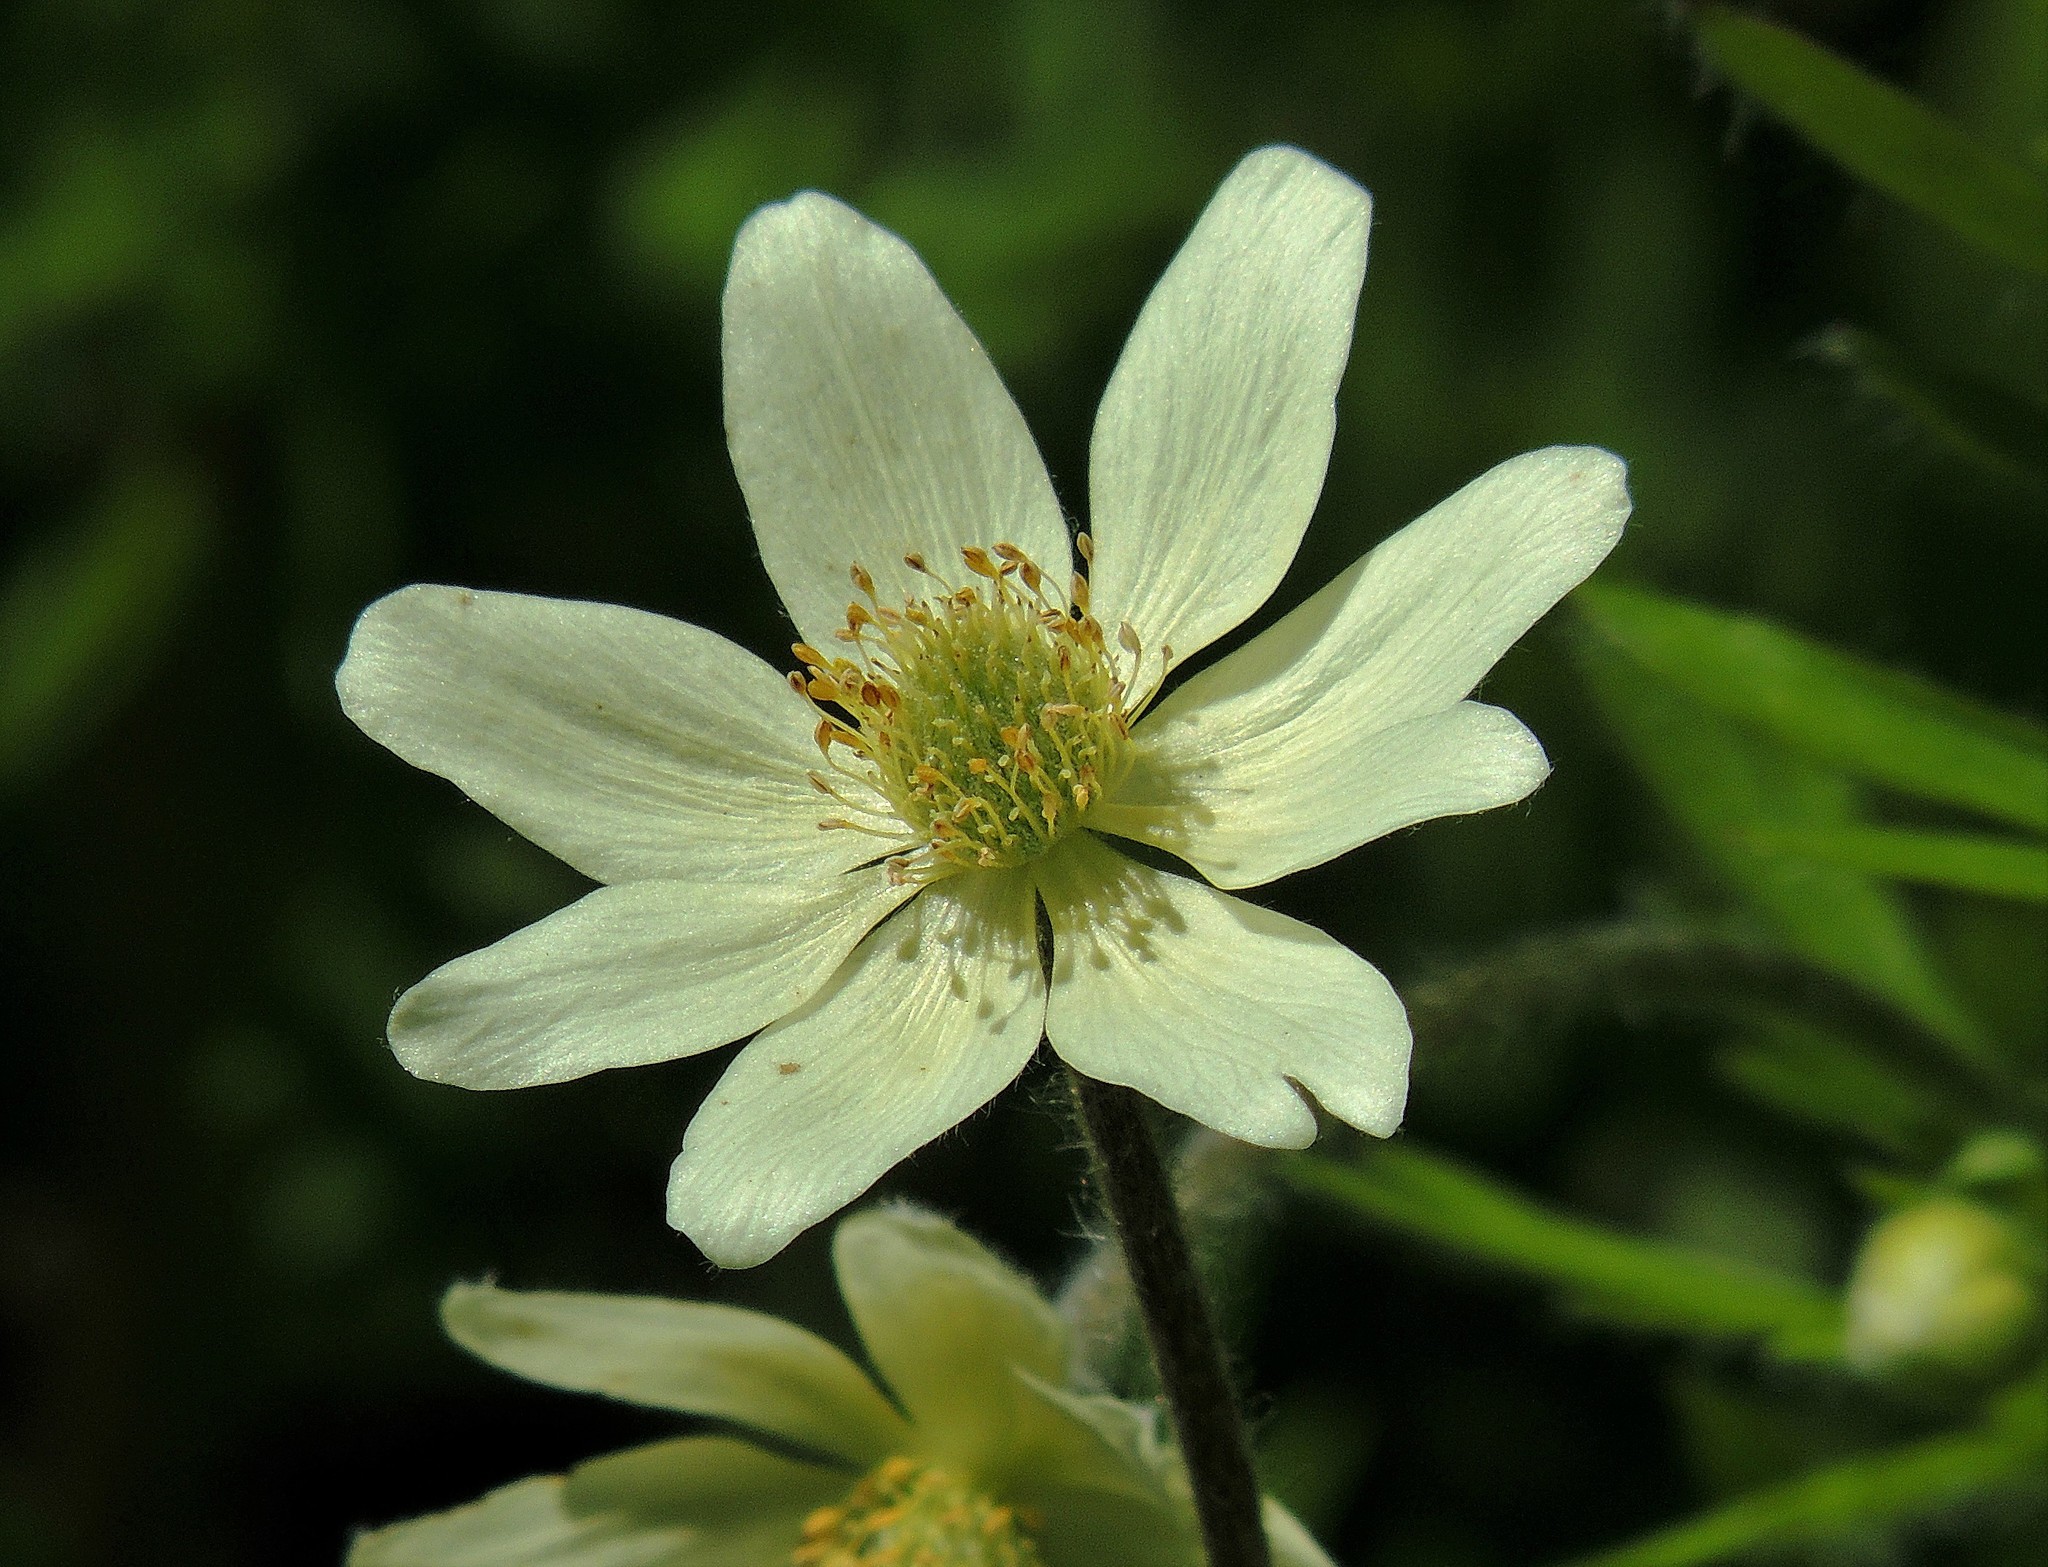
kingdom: Plantae
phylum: Tracheophyta
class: Magnoliopsida
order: Ranunculales
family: Ranunculaceae
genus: Anemone
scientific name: Anemone multifida
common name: Bird's-foot anemone
